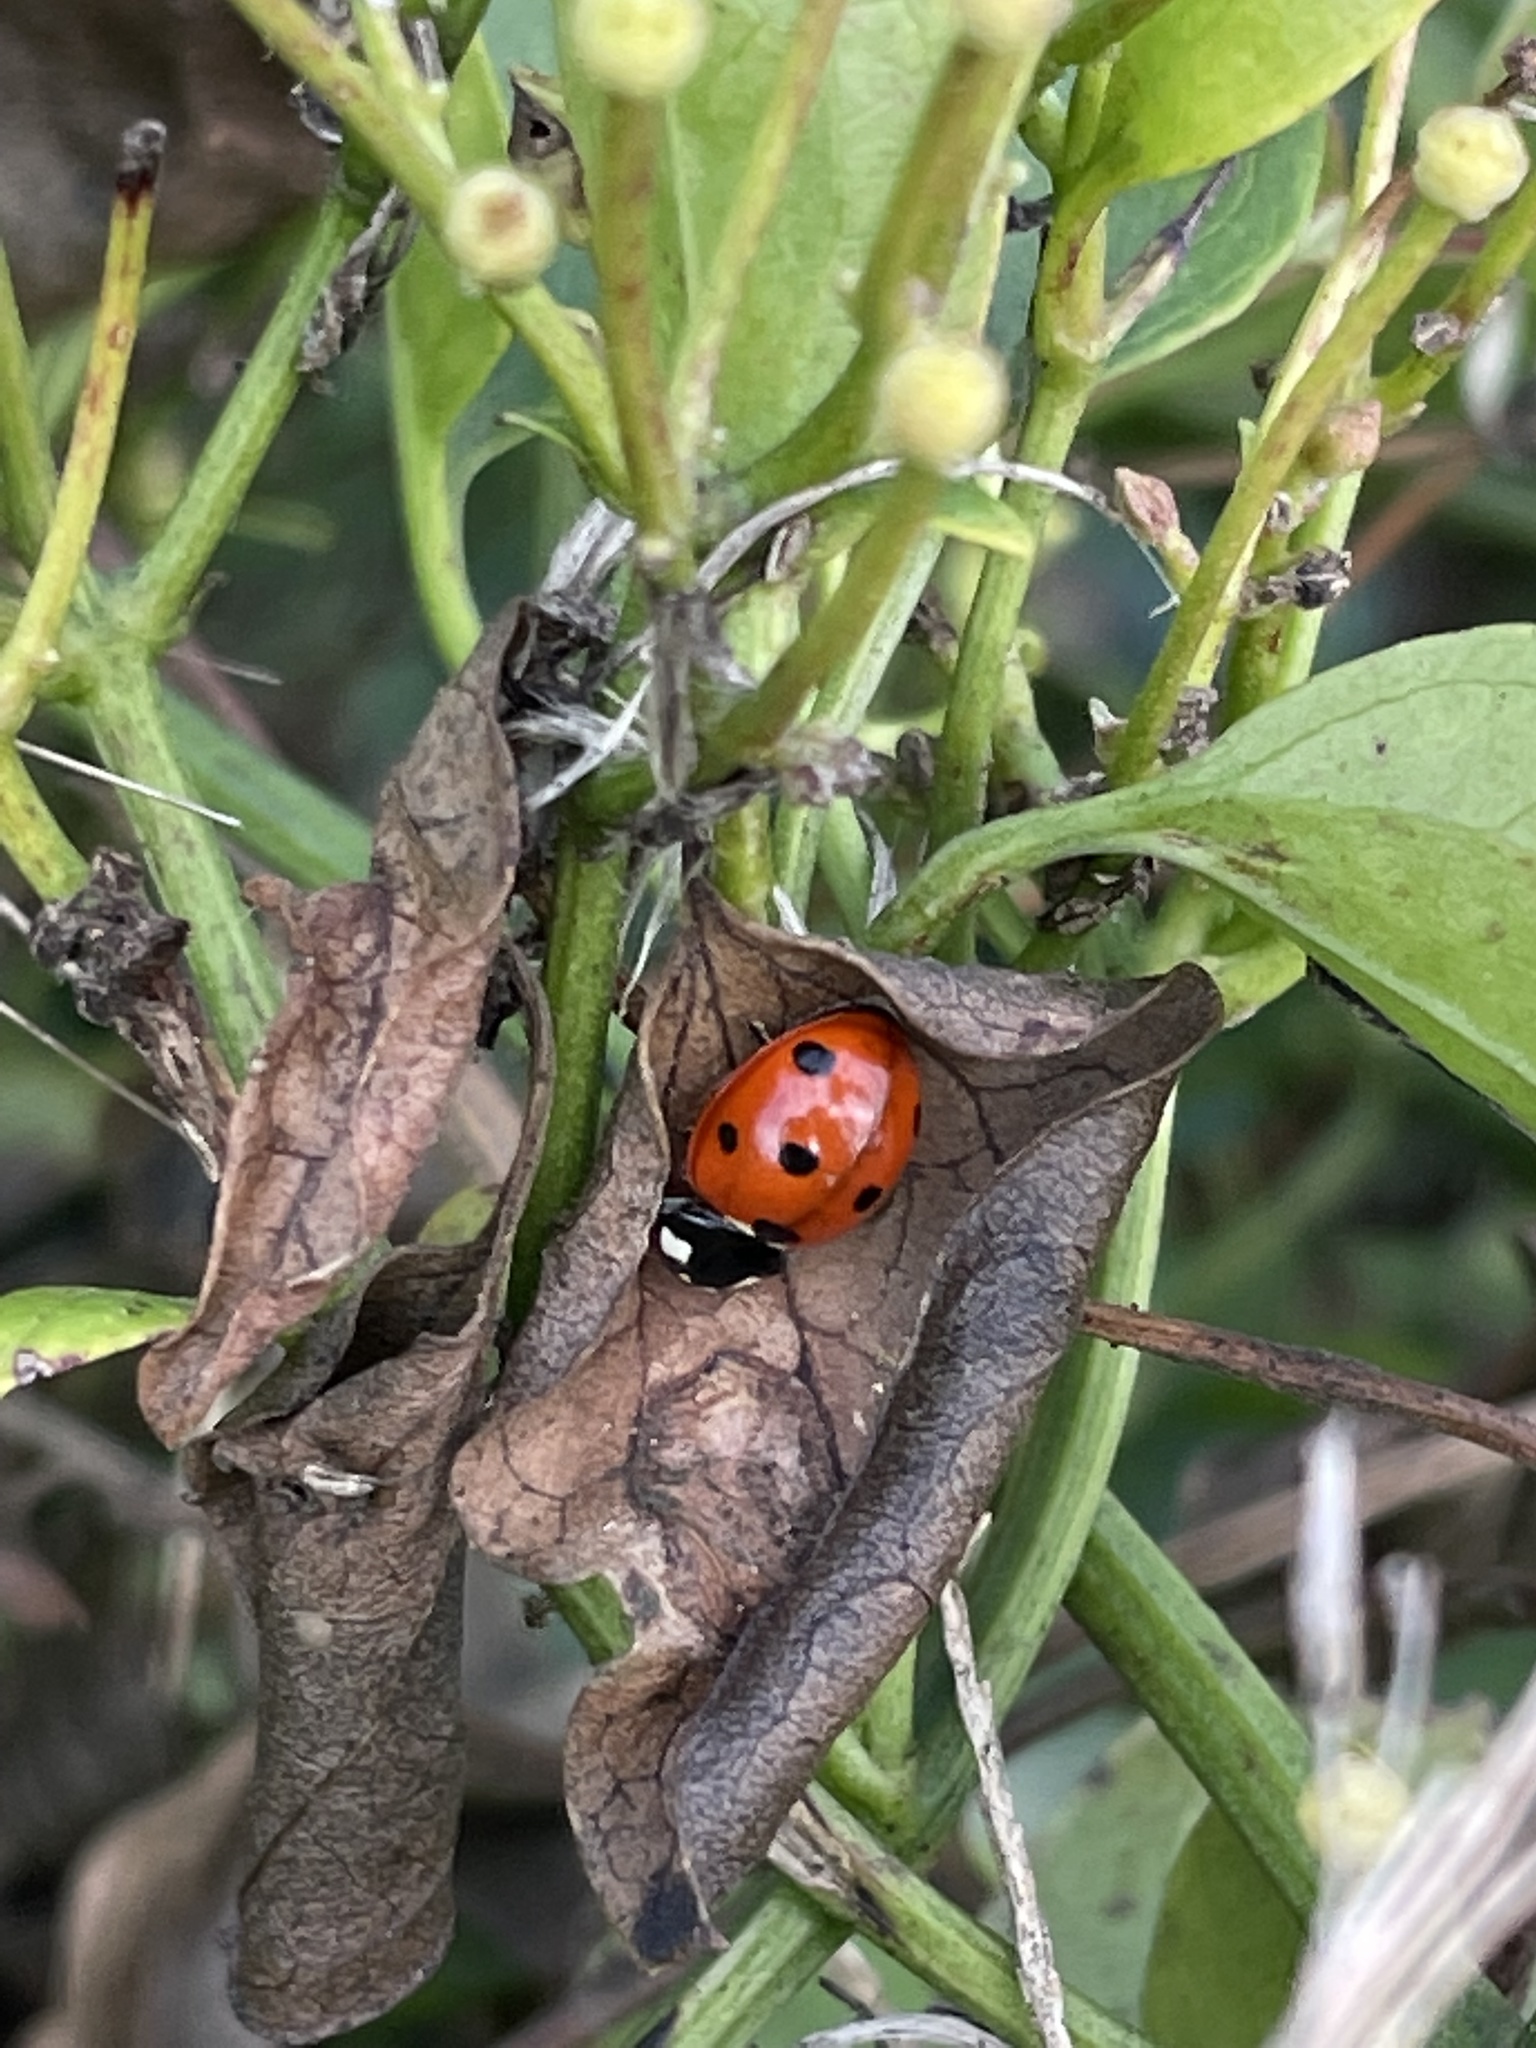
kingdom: Animalia
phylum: Arthropoda
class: Insecta
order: Coleoptera
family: Coccinellidae
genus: Coccinella
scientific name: Coccinella septempunctata
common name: Sevenspotted lady beetle
